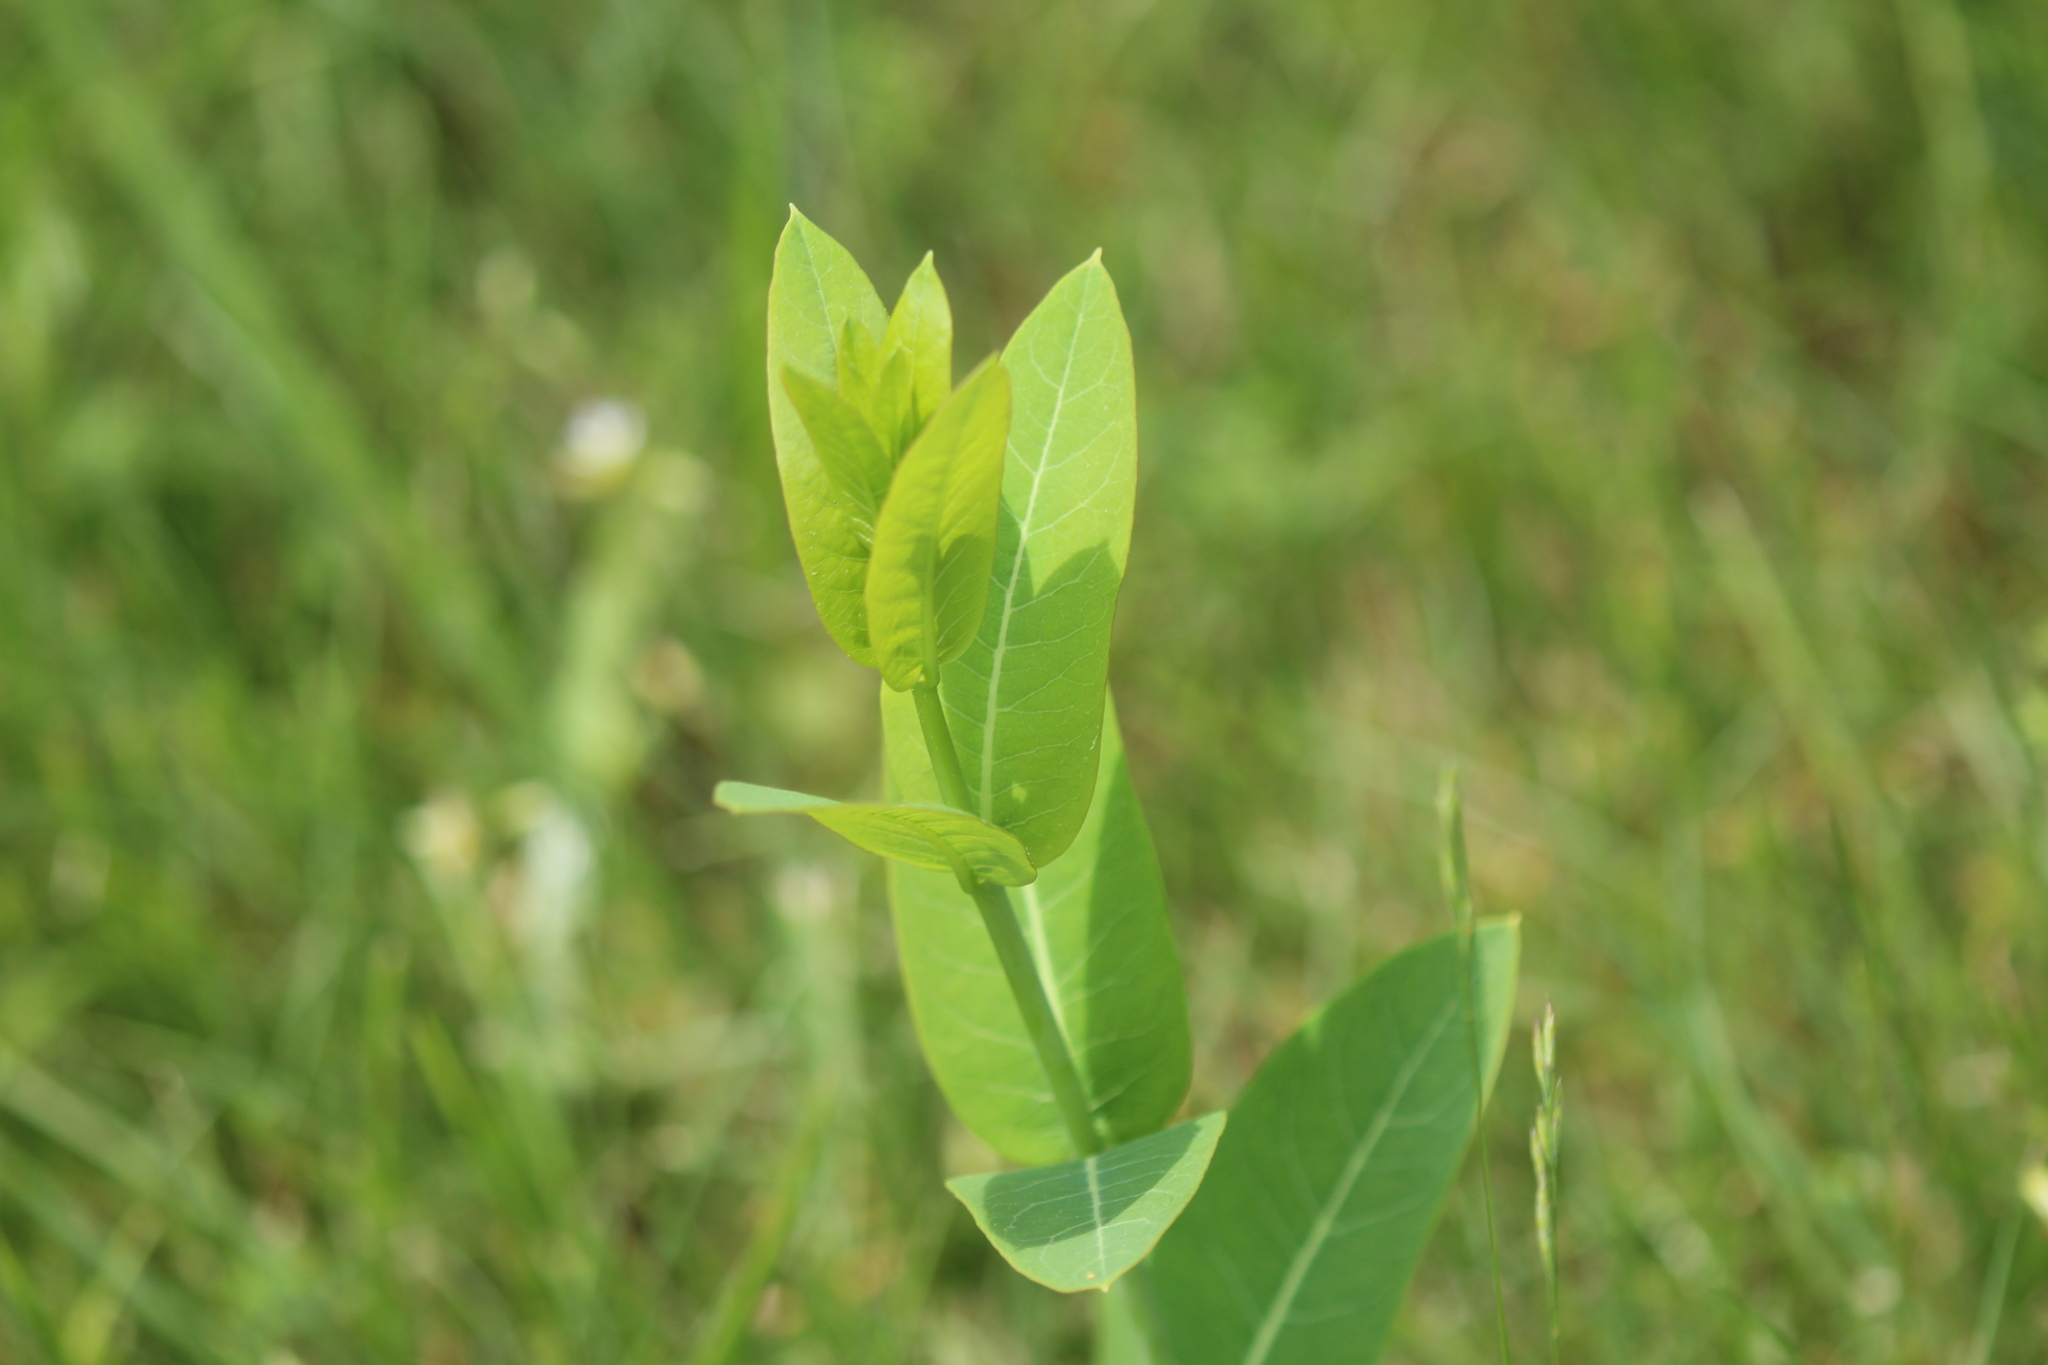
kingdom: Plantae
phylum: Tracheophyta
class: Magnoliopsida
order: Gentianales
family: Apocynaceae
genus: Apocynum
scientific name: Apocynum cannabinum
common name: Hemp dogbane
